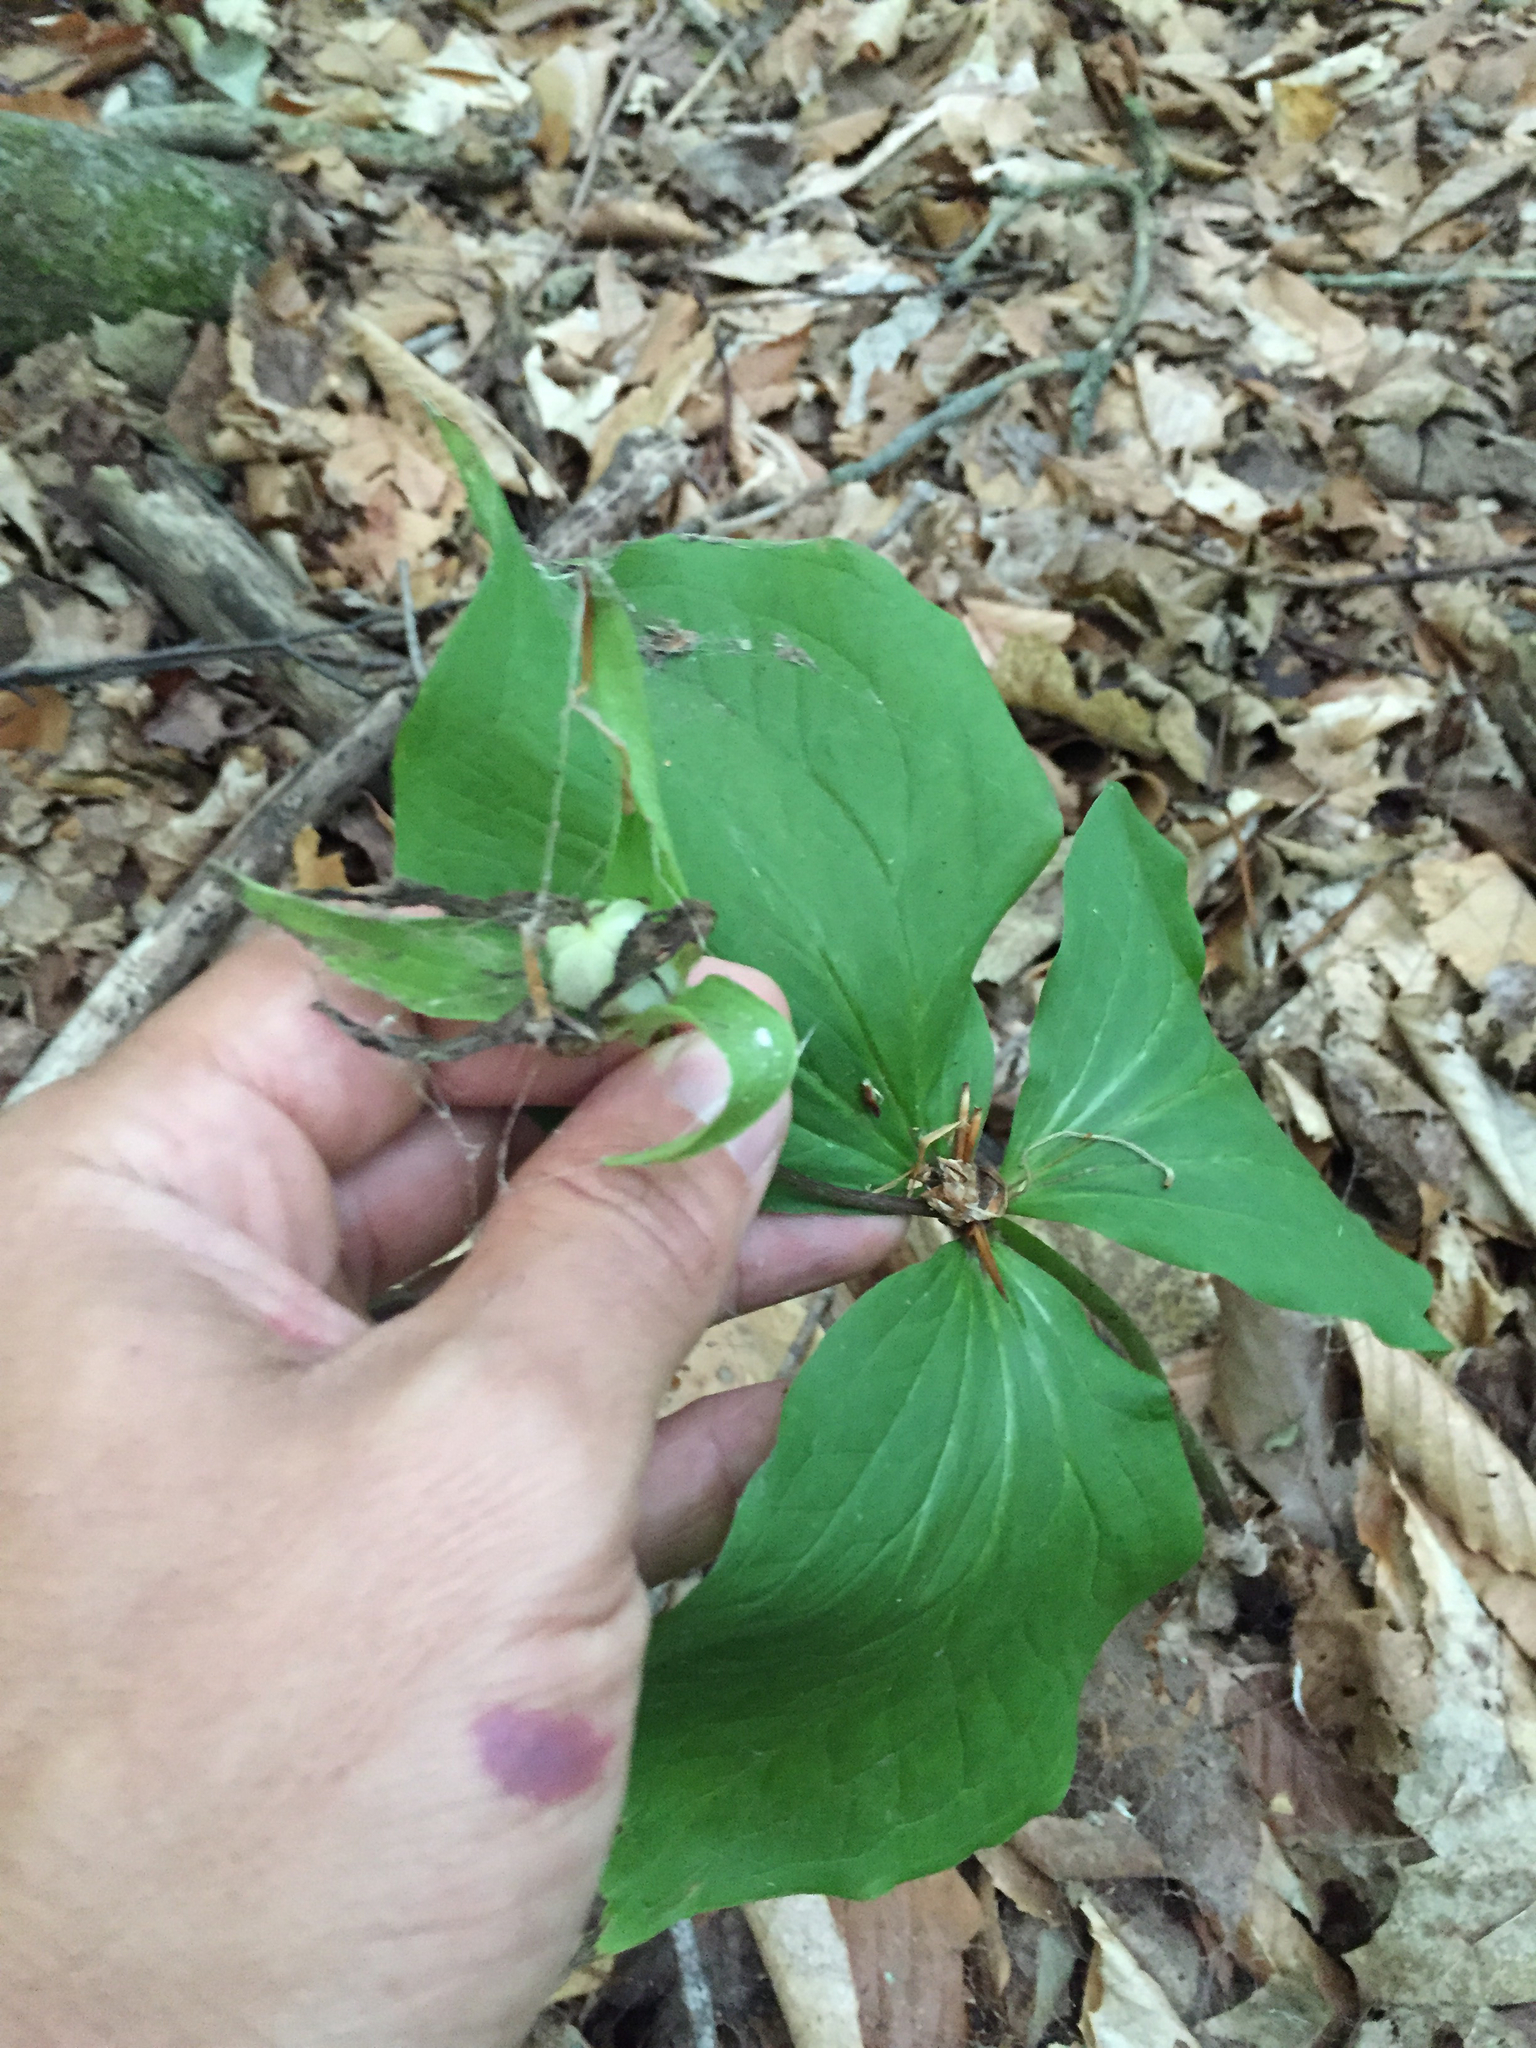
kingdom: Plantae
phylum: Tracheophyta
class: Liliopsida
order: Liliales
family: Melanthiaceae
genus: Trillium
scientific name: Trillium grandiflorum
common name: Great white trillium
